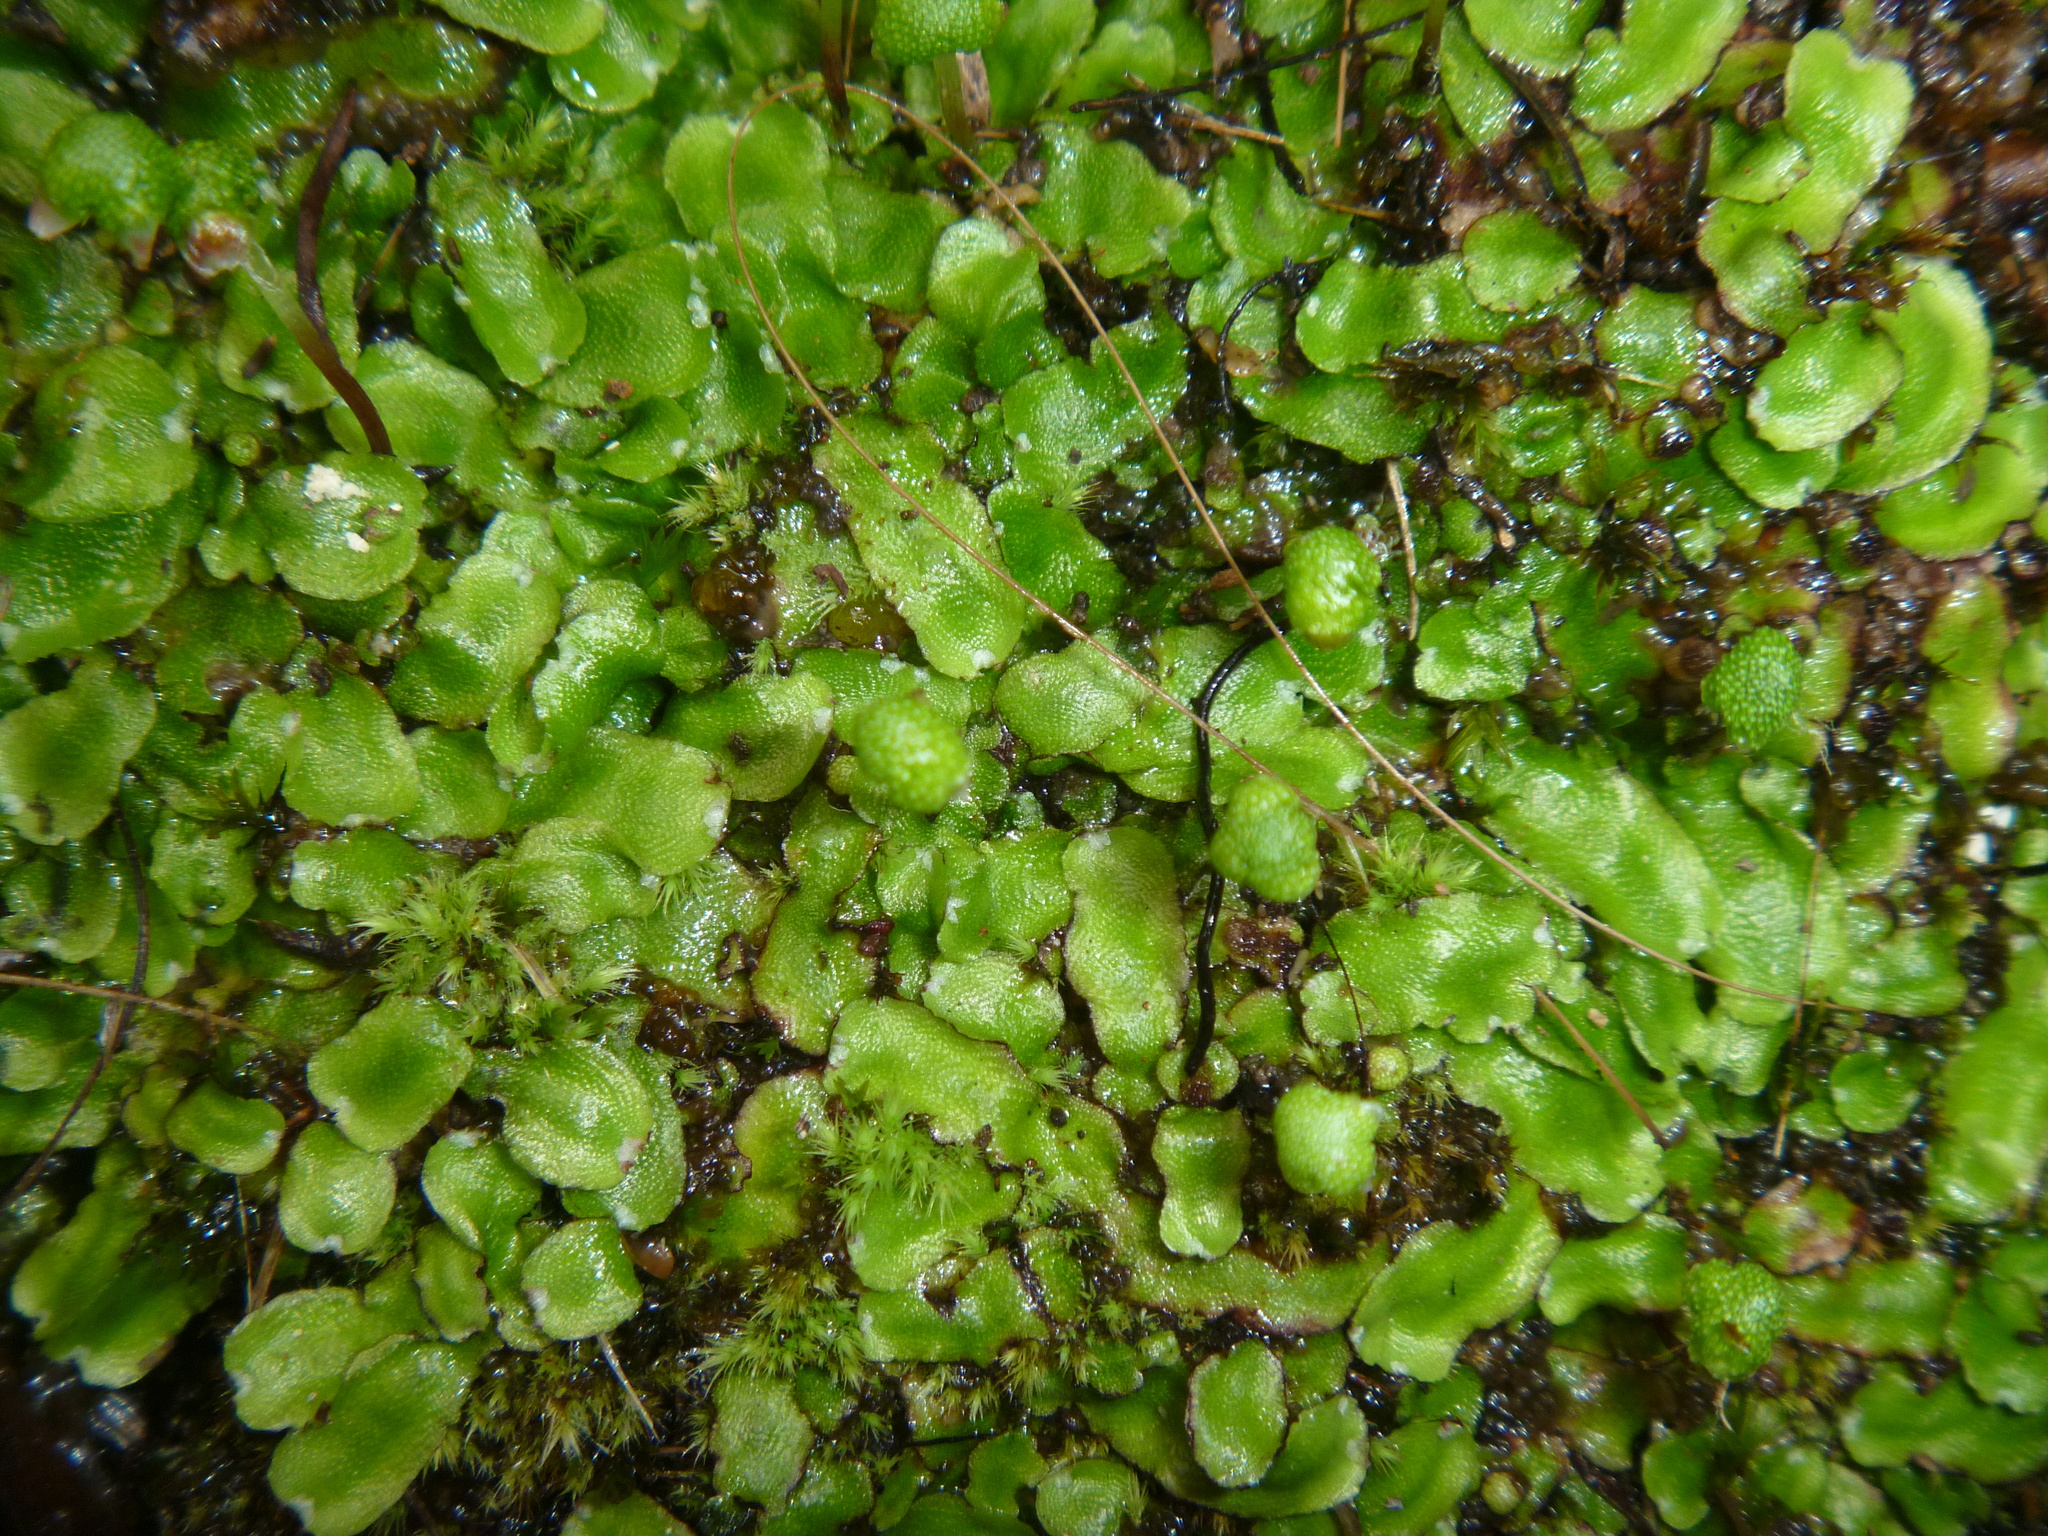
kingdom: Plantae
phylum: Marchantiophyta
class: Marchantiopsida
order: Marchantiales
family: Aytoniaceae
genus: Asterella
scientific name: Asterella australis
